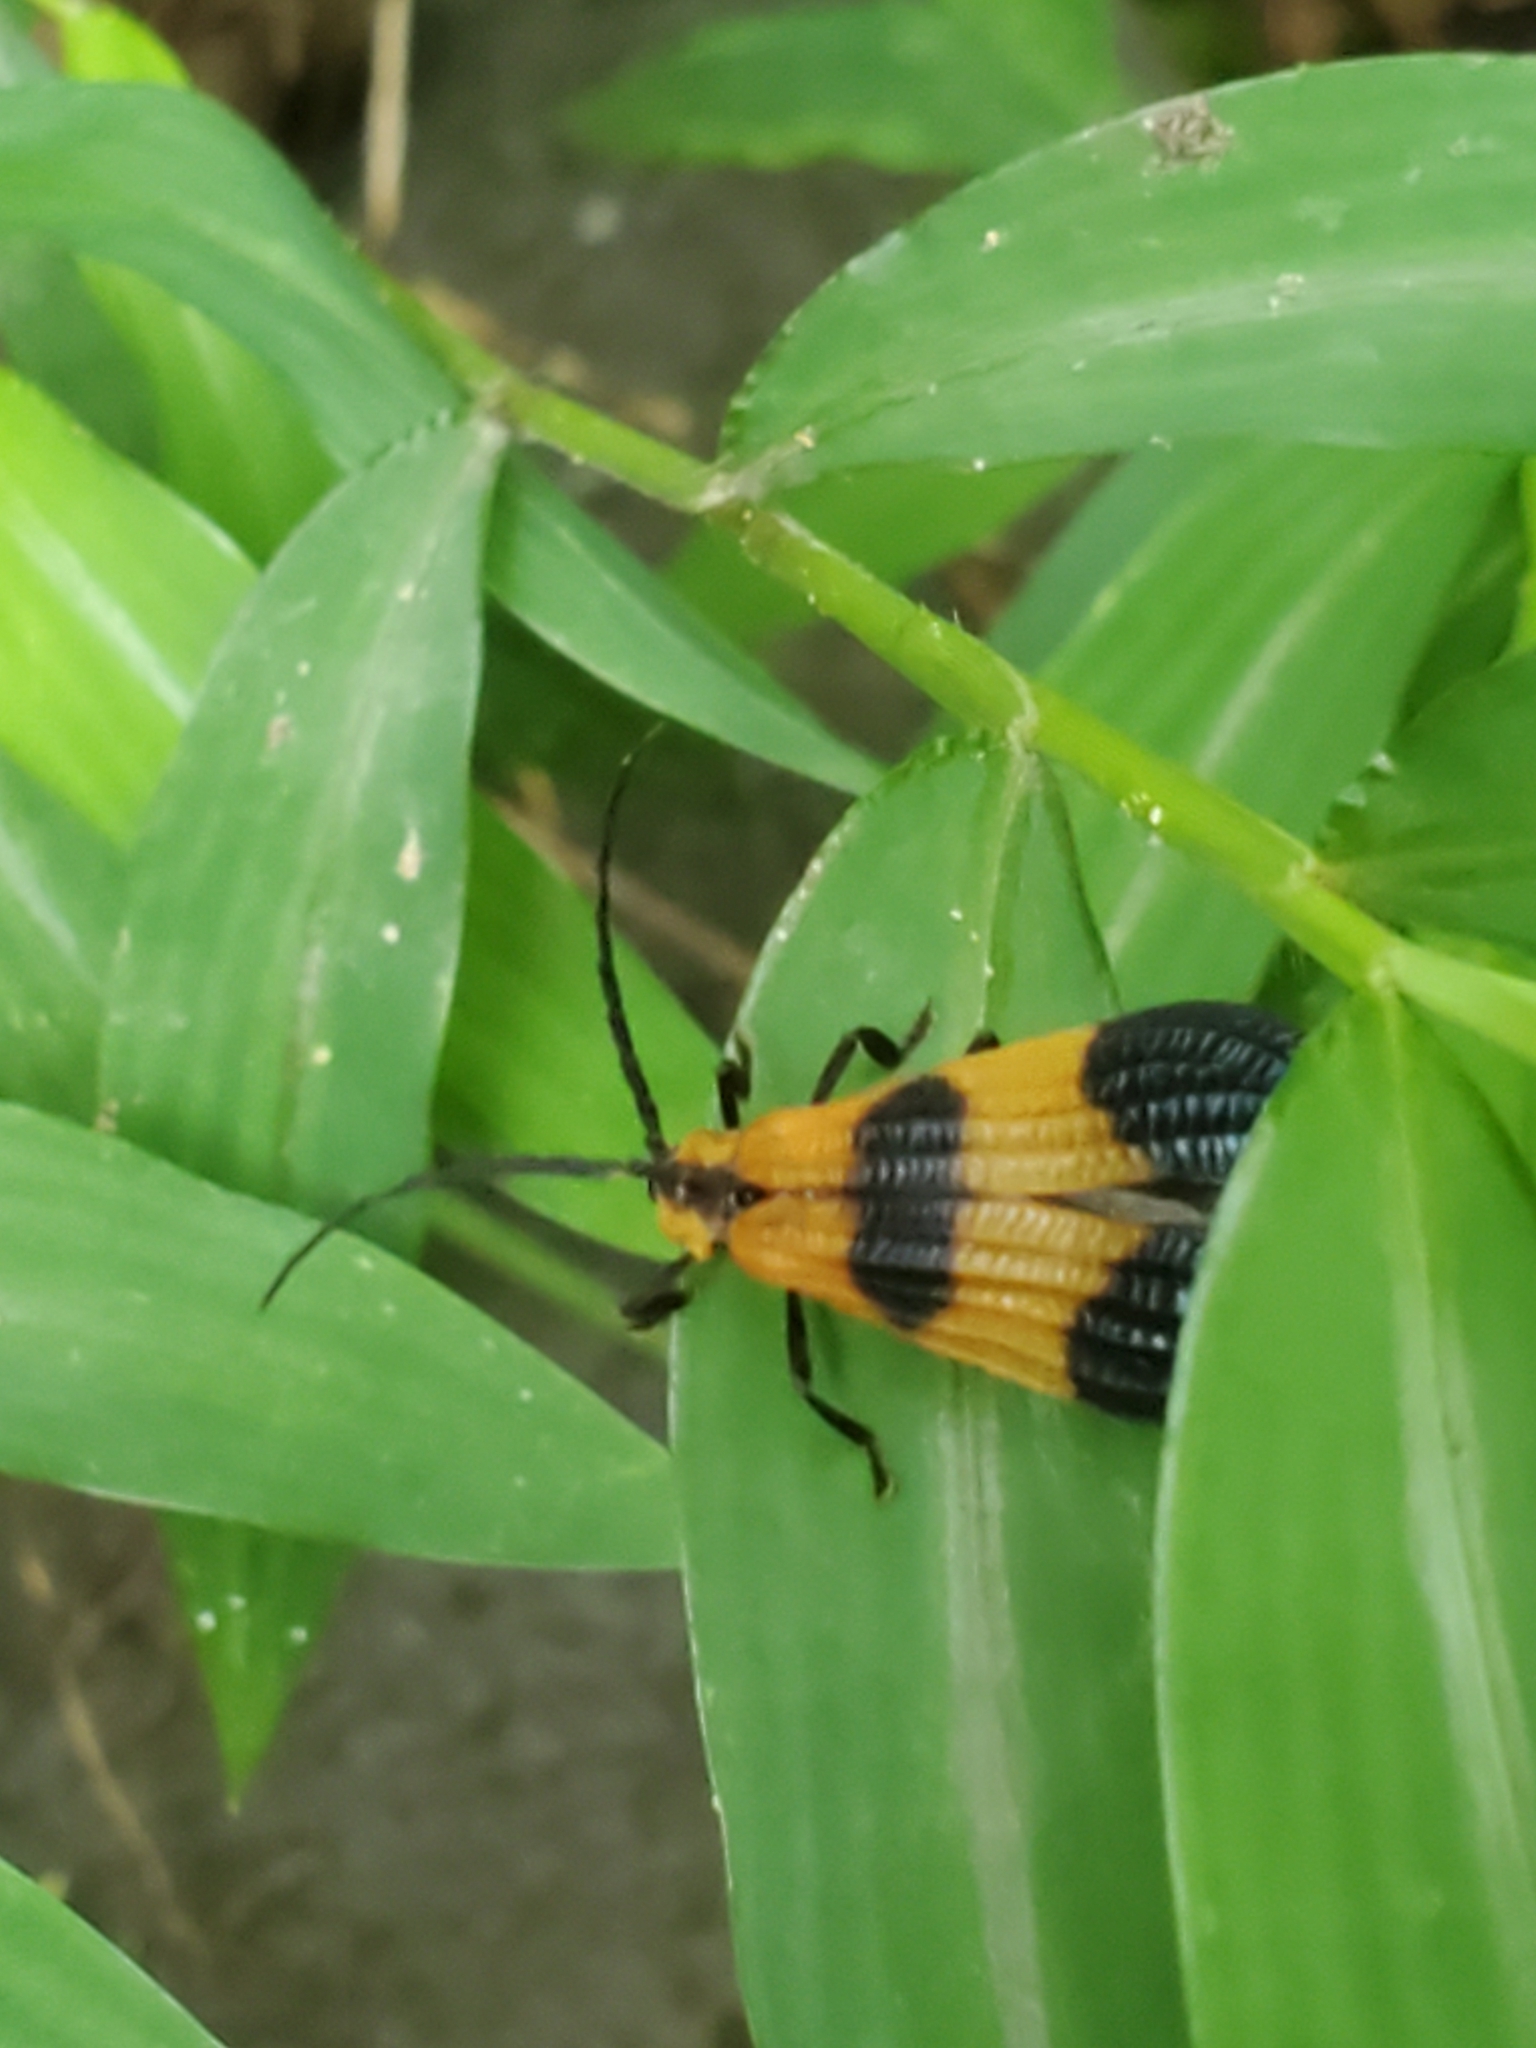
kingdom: Animalia
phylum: Arthropoda
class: Insecta
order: Coleoptera
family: Lycidae
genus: Calopteron
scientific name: Calopteron terminale
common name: End band net-winged beetle
